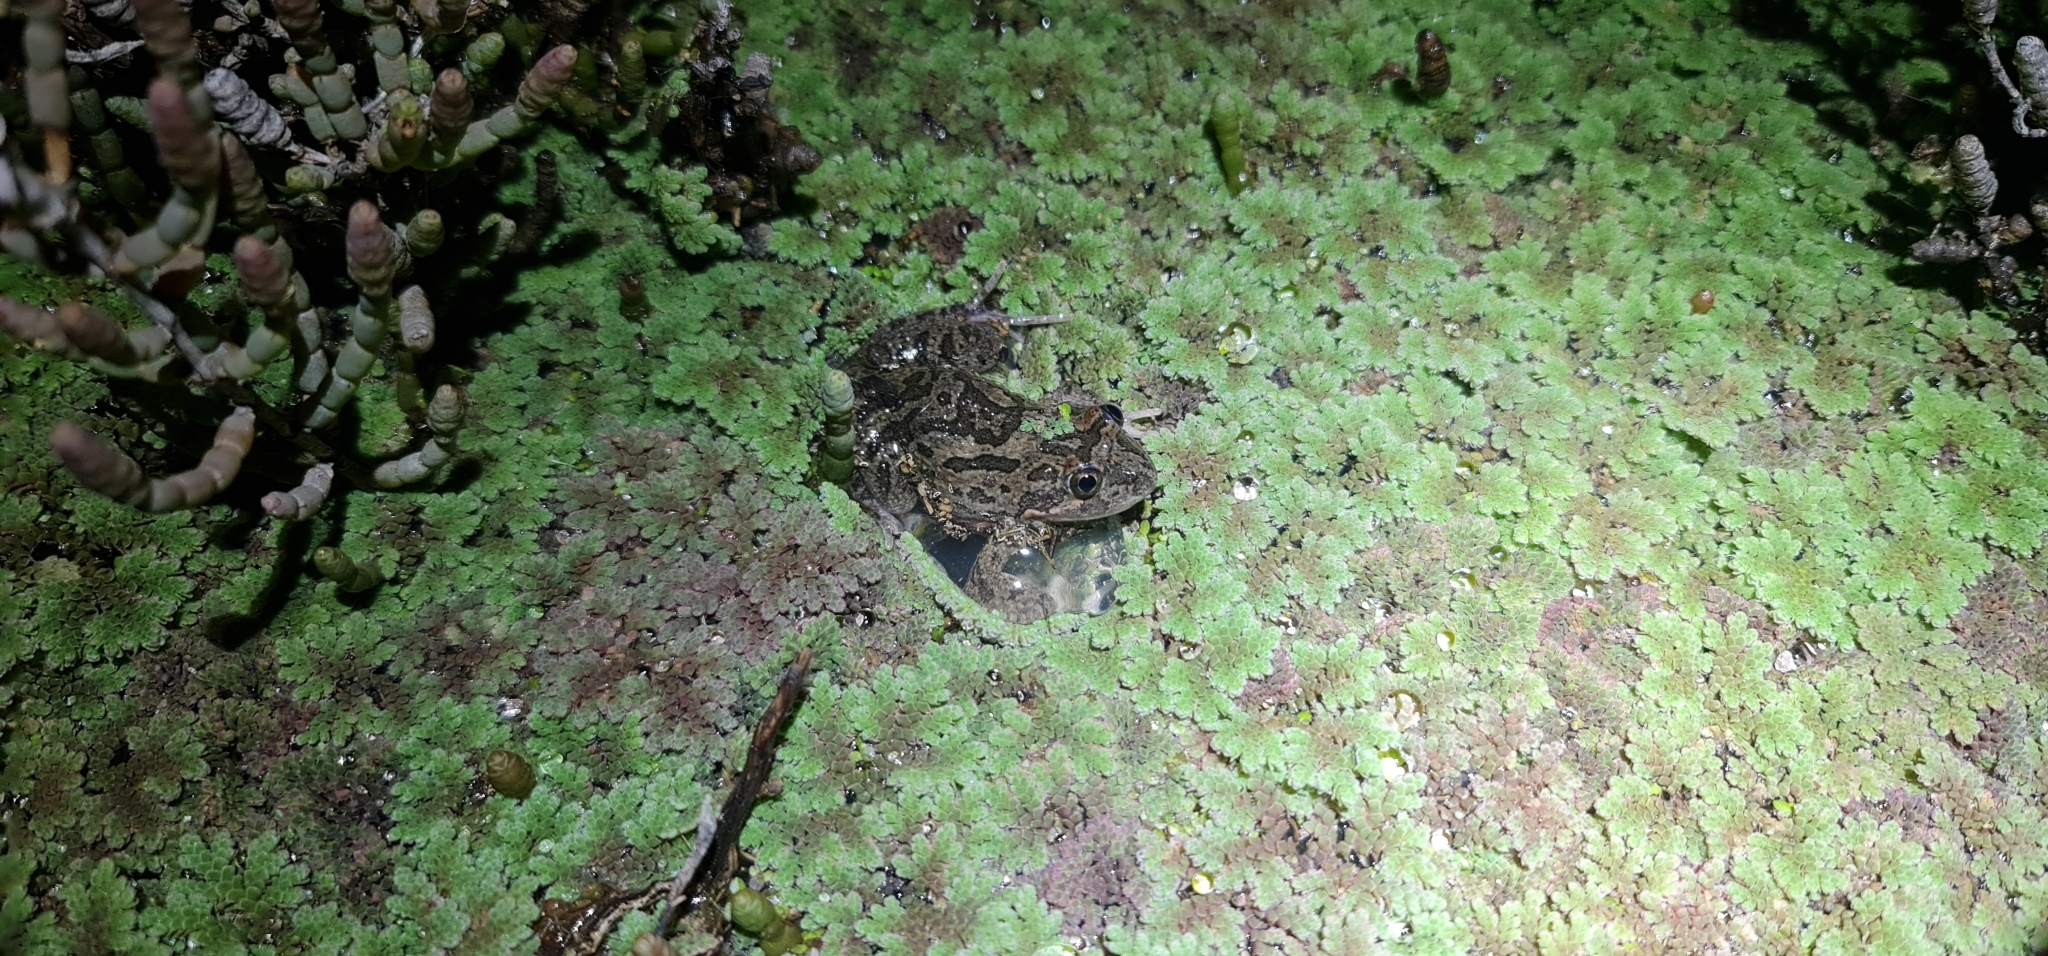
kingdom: Animalia
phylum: Chordata
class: Amphibia
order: Anura
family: Limnodynastidae
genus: Limnodynastes
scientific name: Limnodynastes fletcheri
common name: Barking frog
